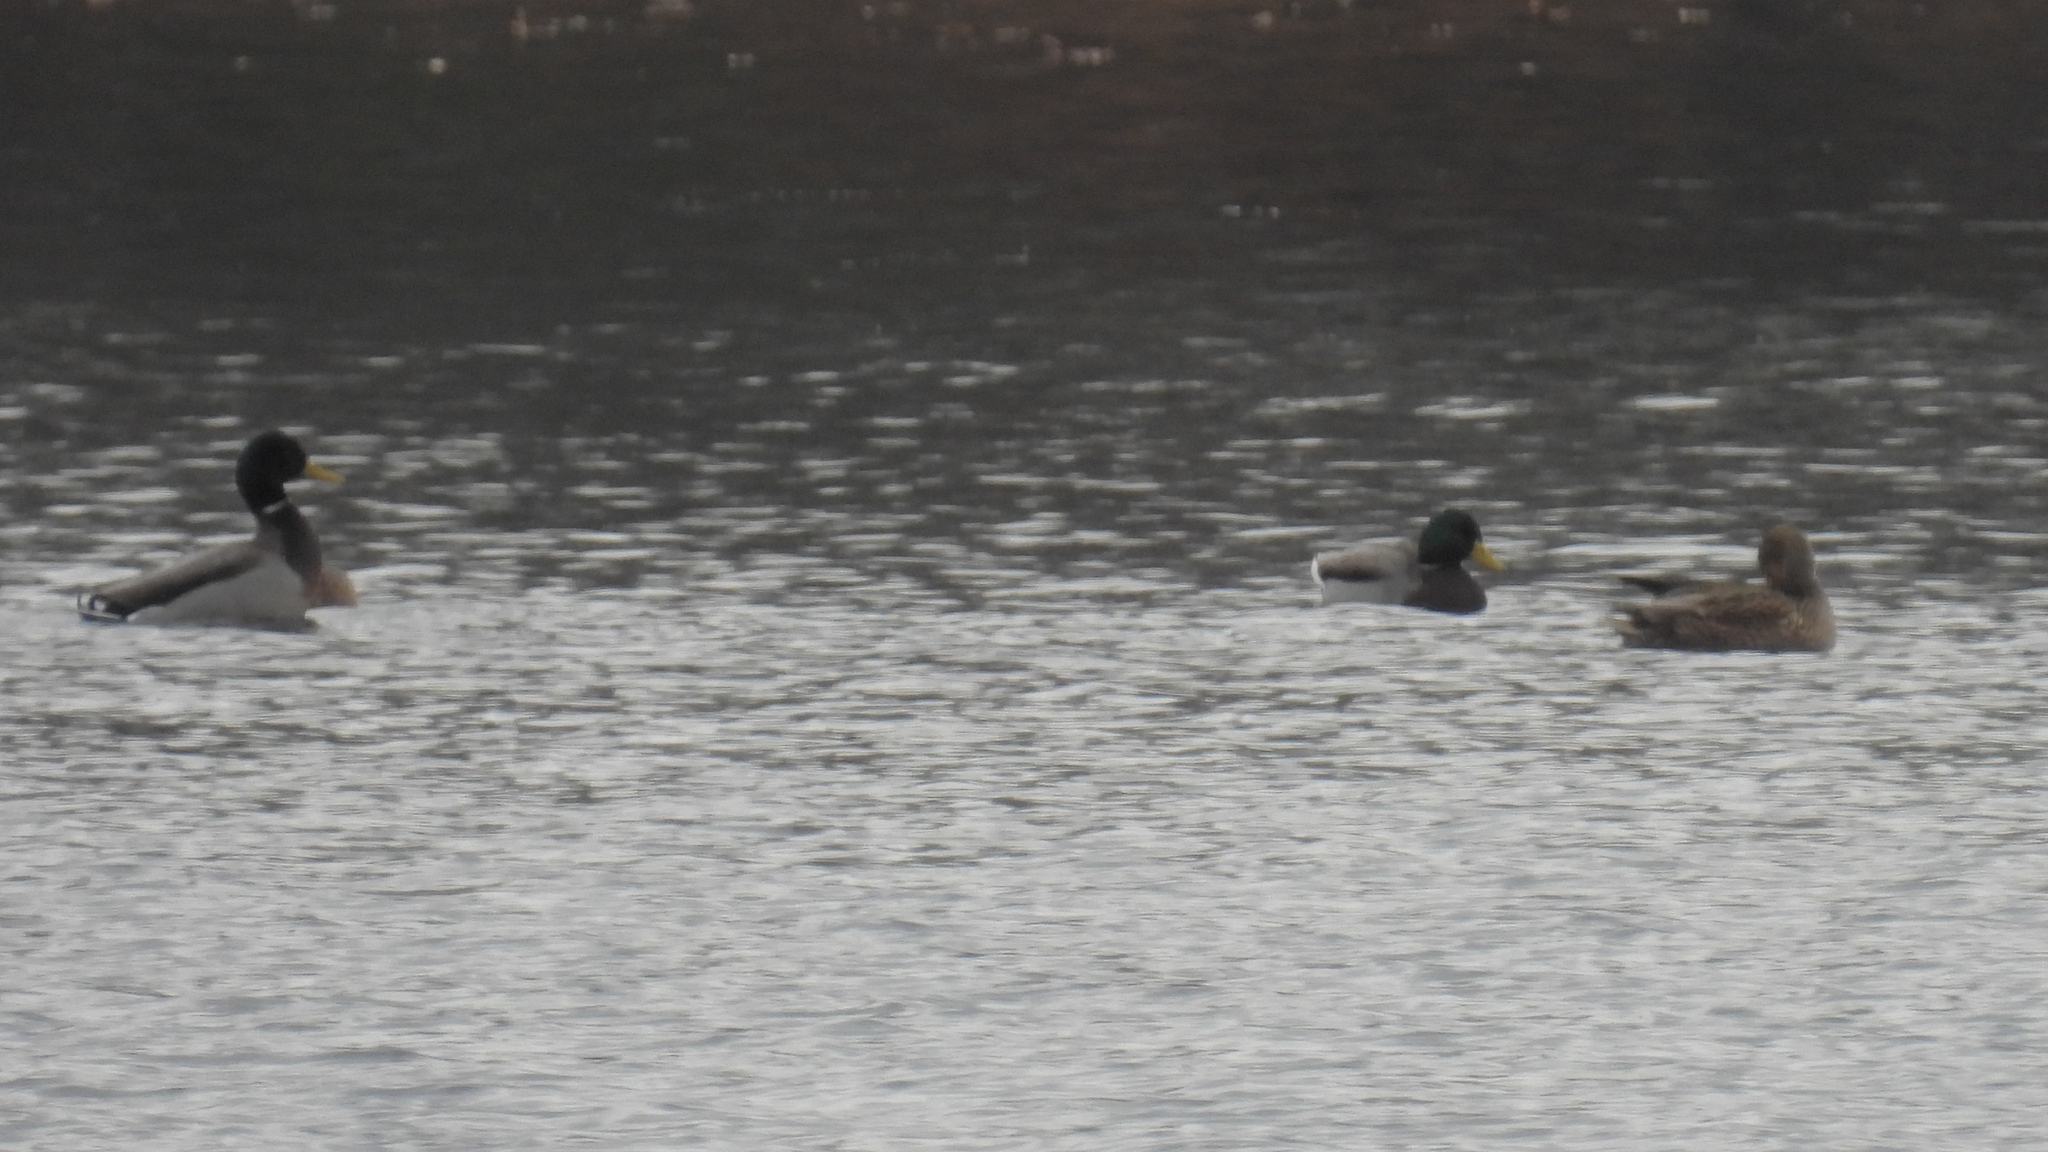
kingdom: Animalia
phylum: Chordata
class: Aves
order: Anseriformes
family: Anatidae
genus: Anas
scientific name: Anas platyrhynchos
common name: Mallard
